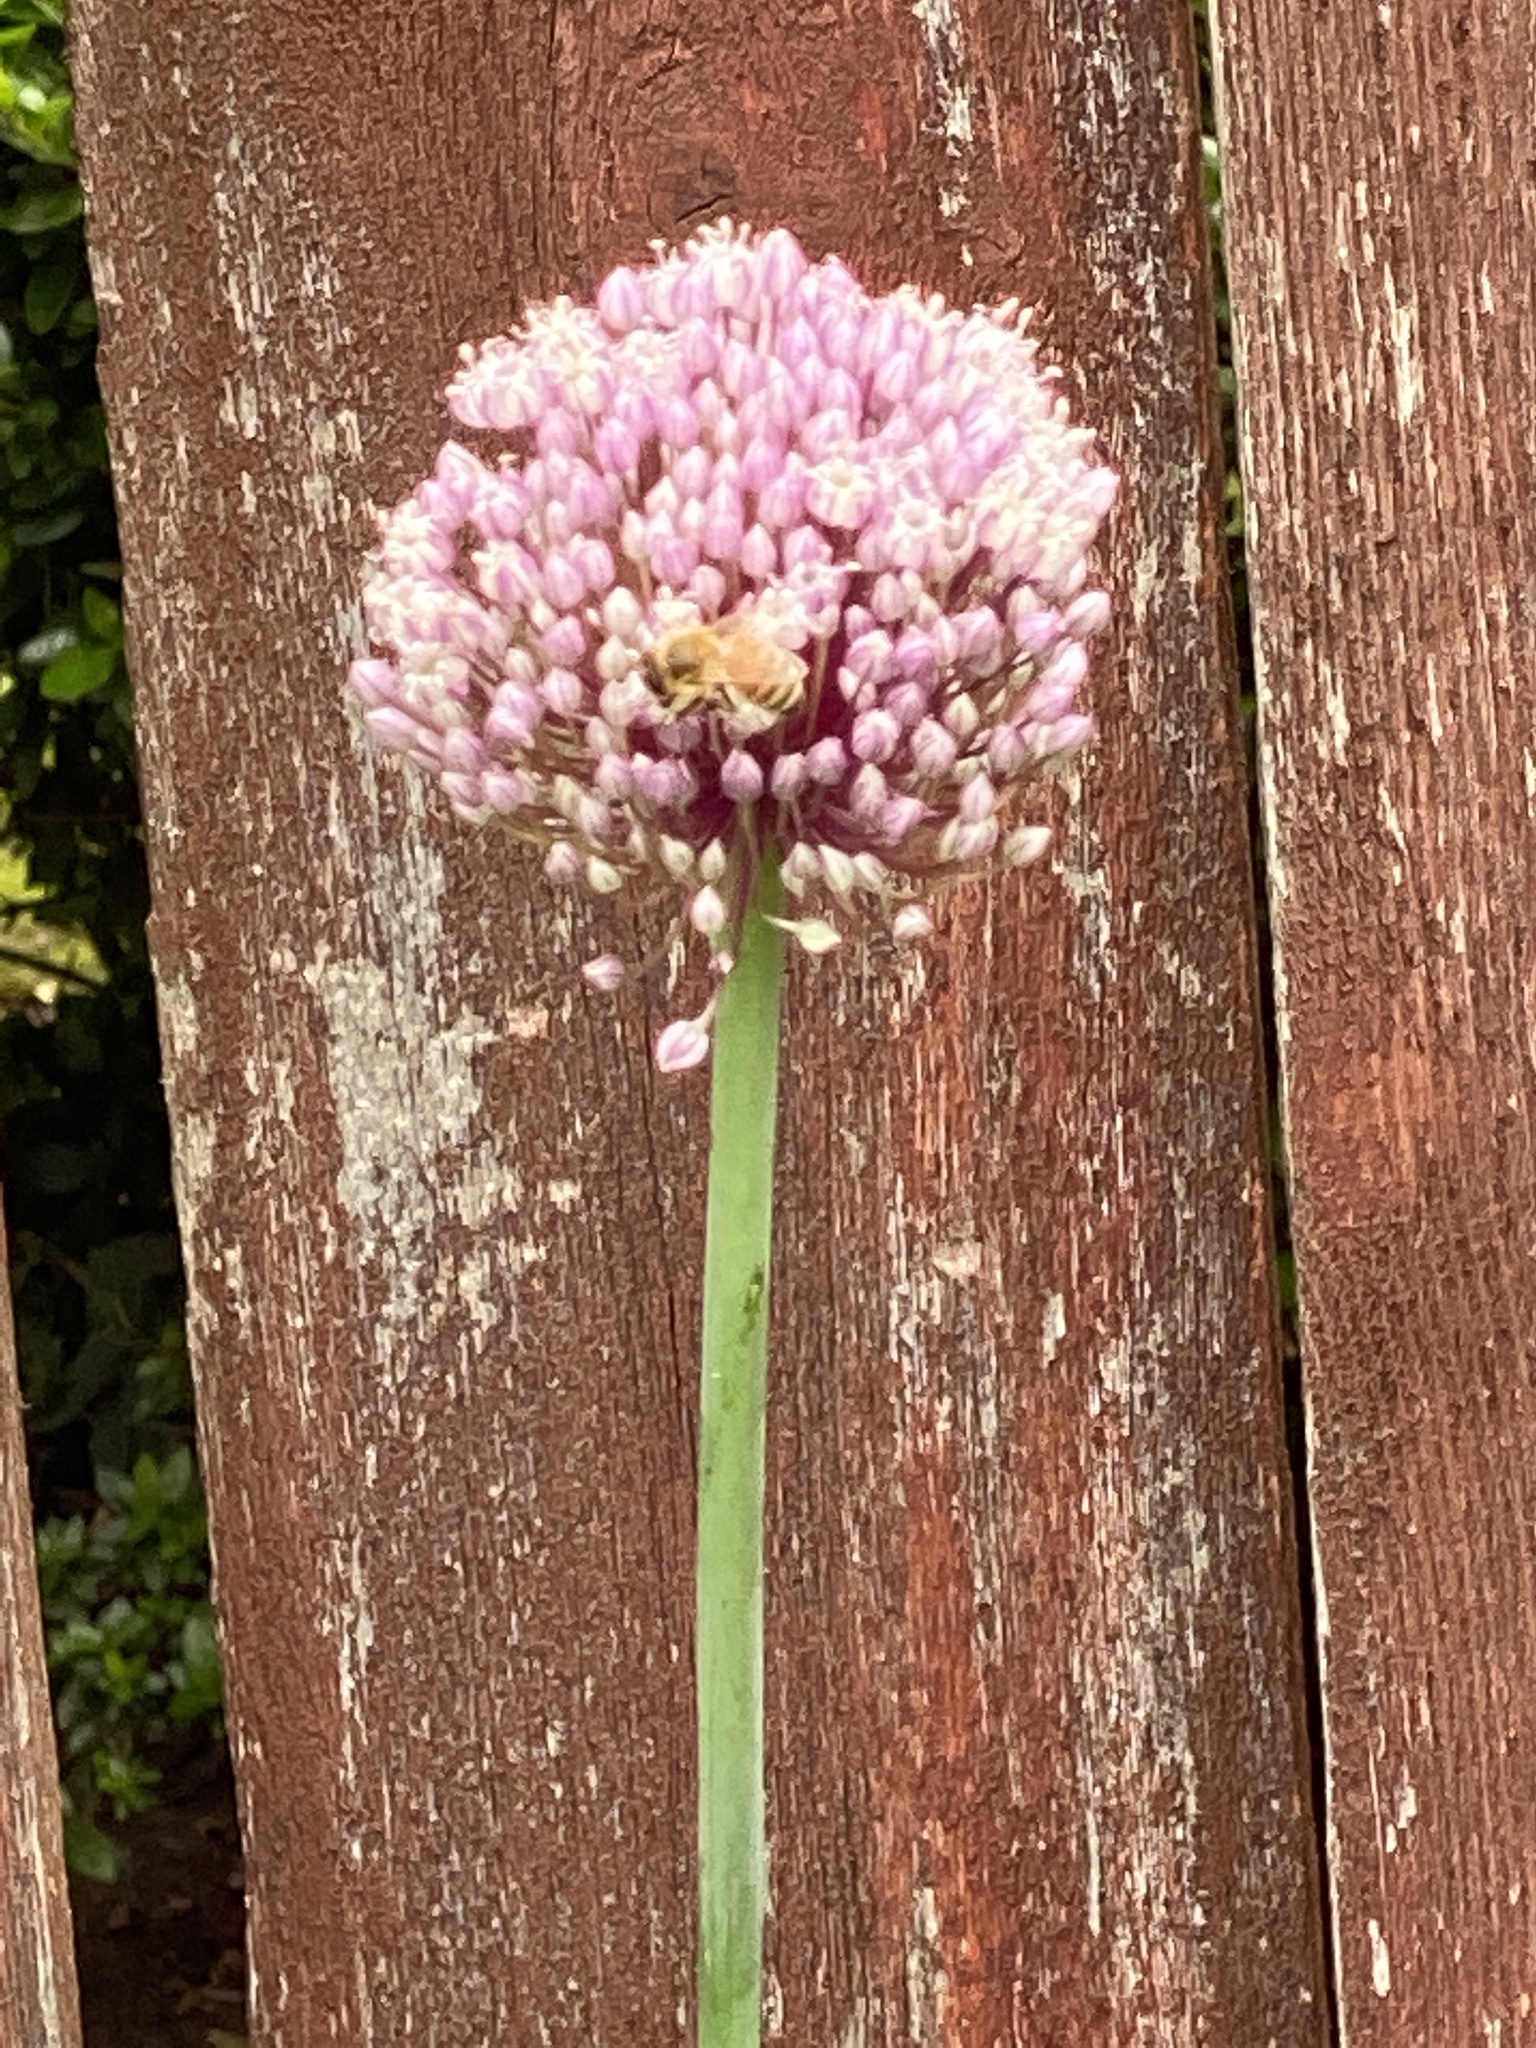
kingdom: Animalia
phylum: Arthropoda
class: Insecta
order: Hymenoptera
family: Apidae
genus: Apis
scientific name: Apis mellifera
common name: Honey bee
